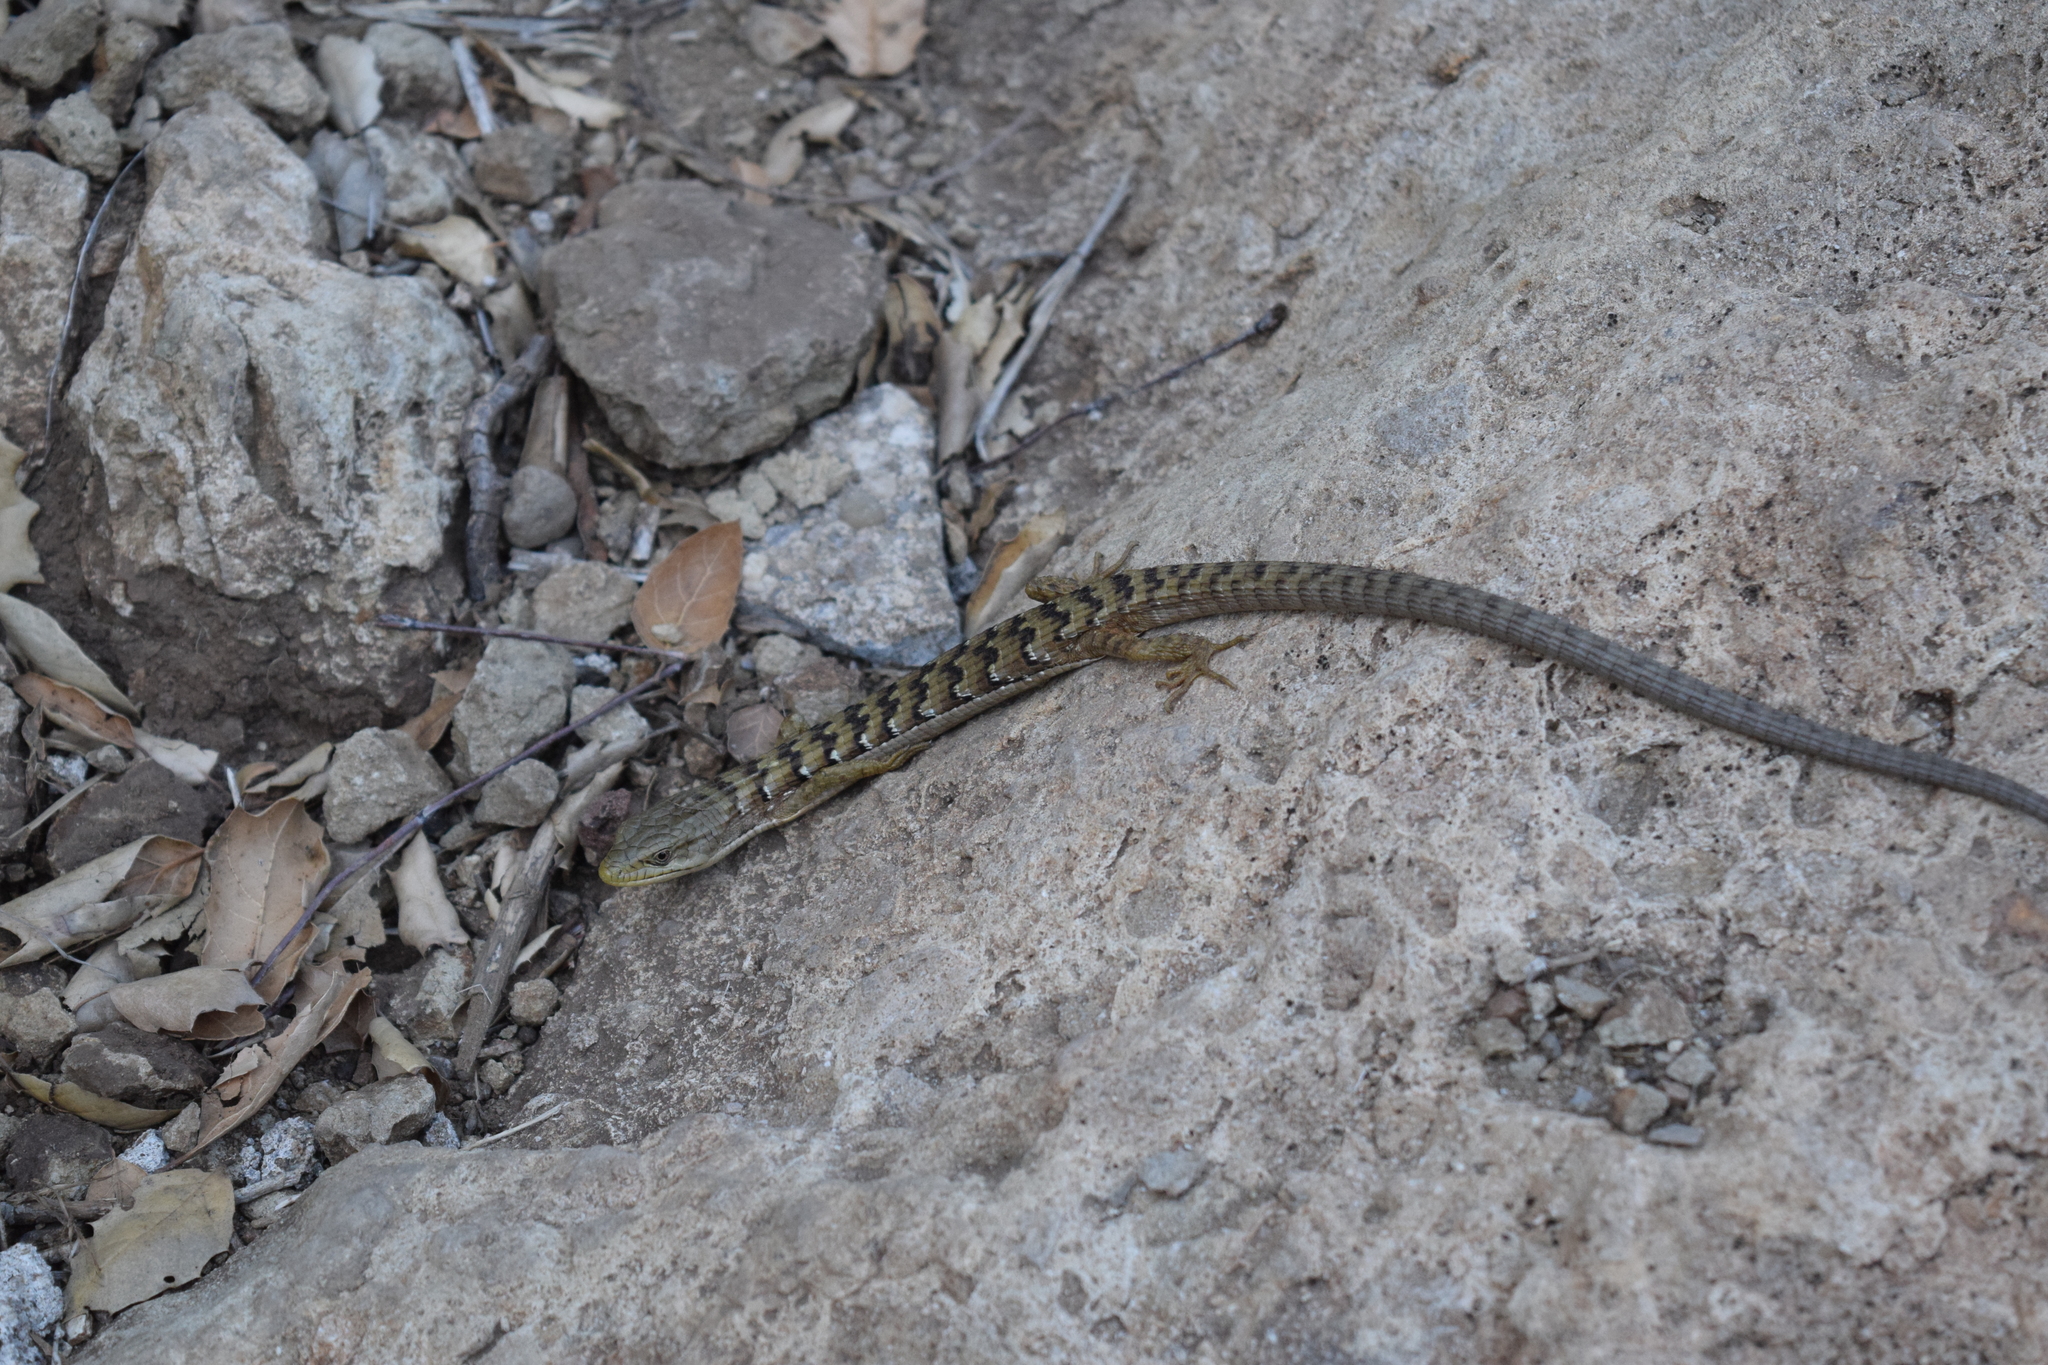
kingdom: Animalia
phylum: Chordata
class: Squamata
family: Anguidae
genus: Elgaria
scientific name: Elgaria multicarinata
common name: Southern alligator lizard
